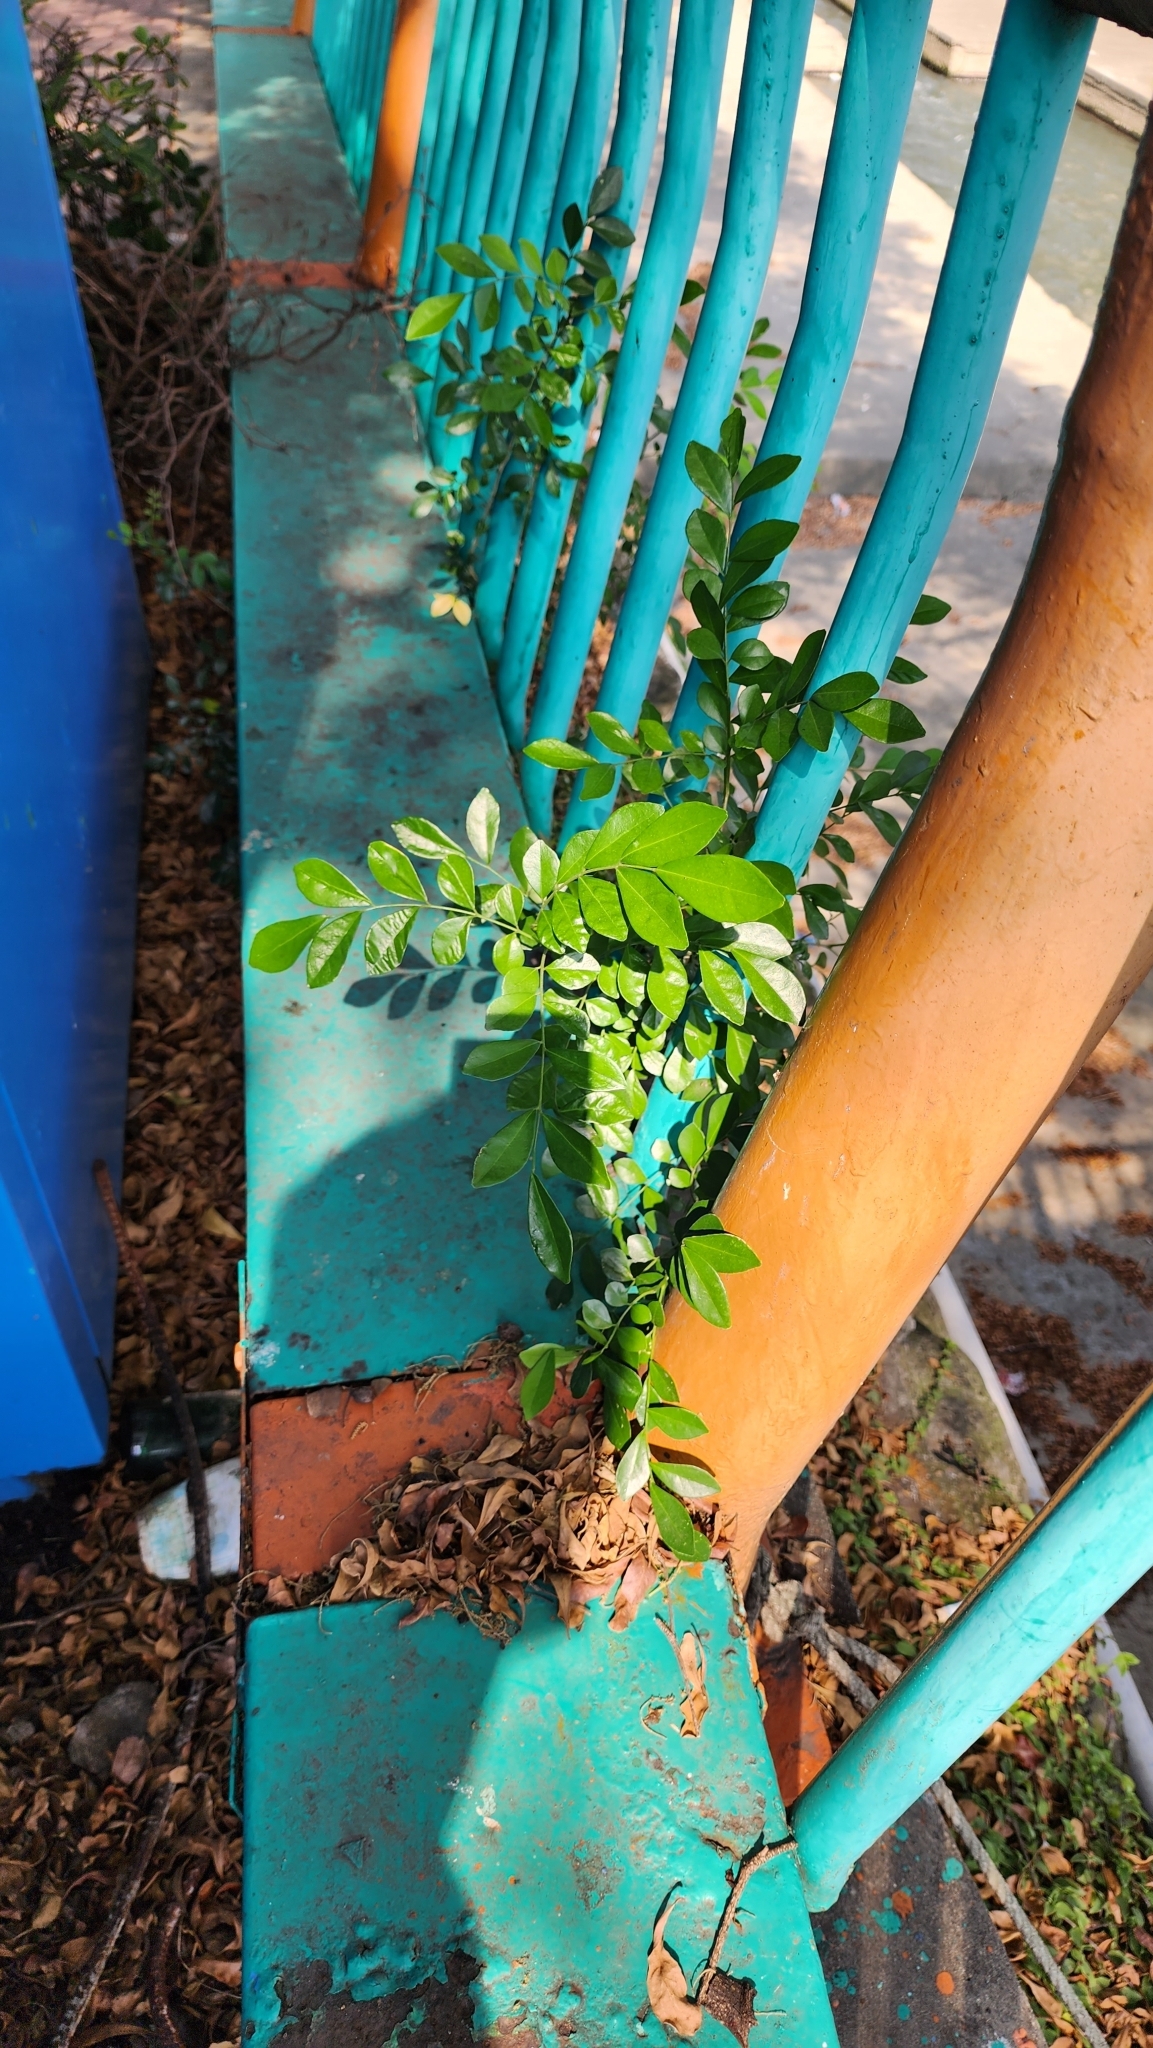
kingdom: Plantae
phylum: Tracheophyta
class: Magnoliopsida
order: Sapindales
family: Rutaceae
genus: Murraya
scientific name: Murraya paniculata
